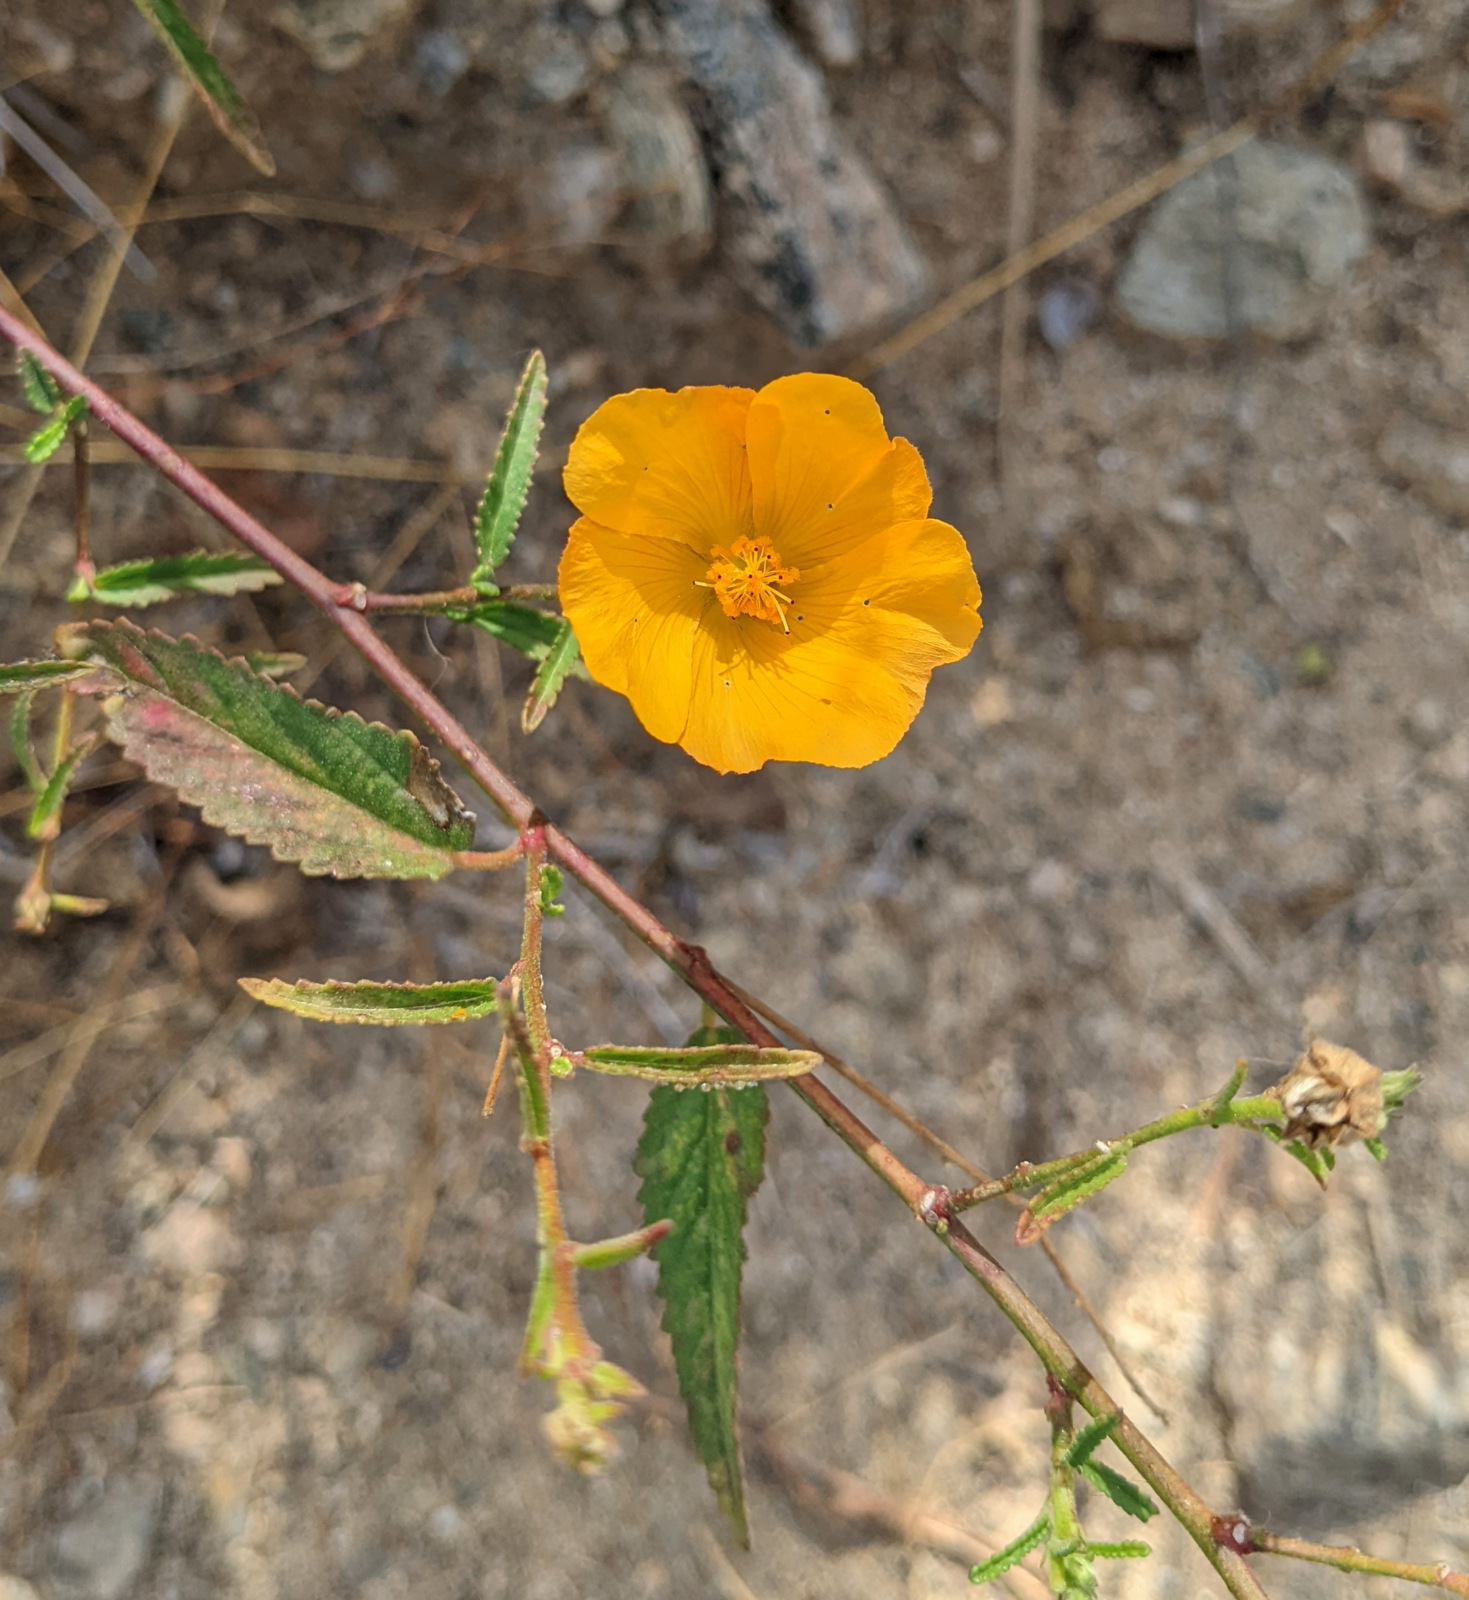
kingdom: Plantae
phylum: Tracheophyta
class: Magnoliopsida
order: Malvales
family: Malvaceae
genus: Sida
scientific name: Sida xanti
